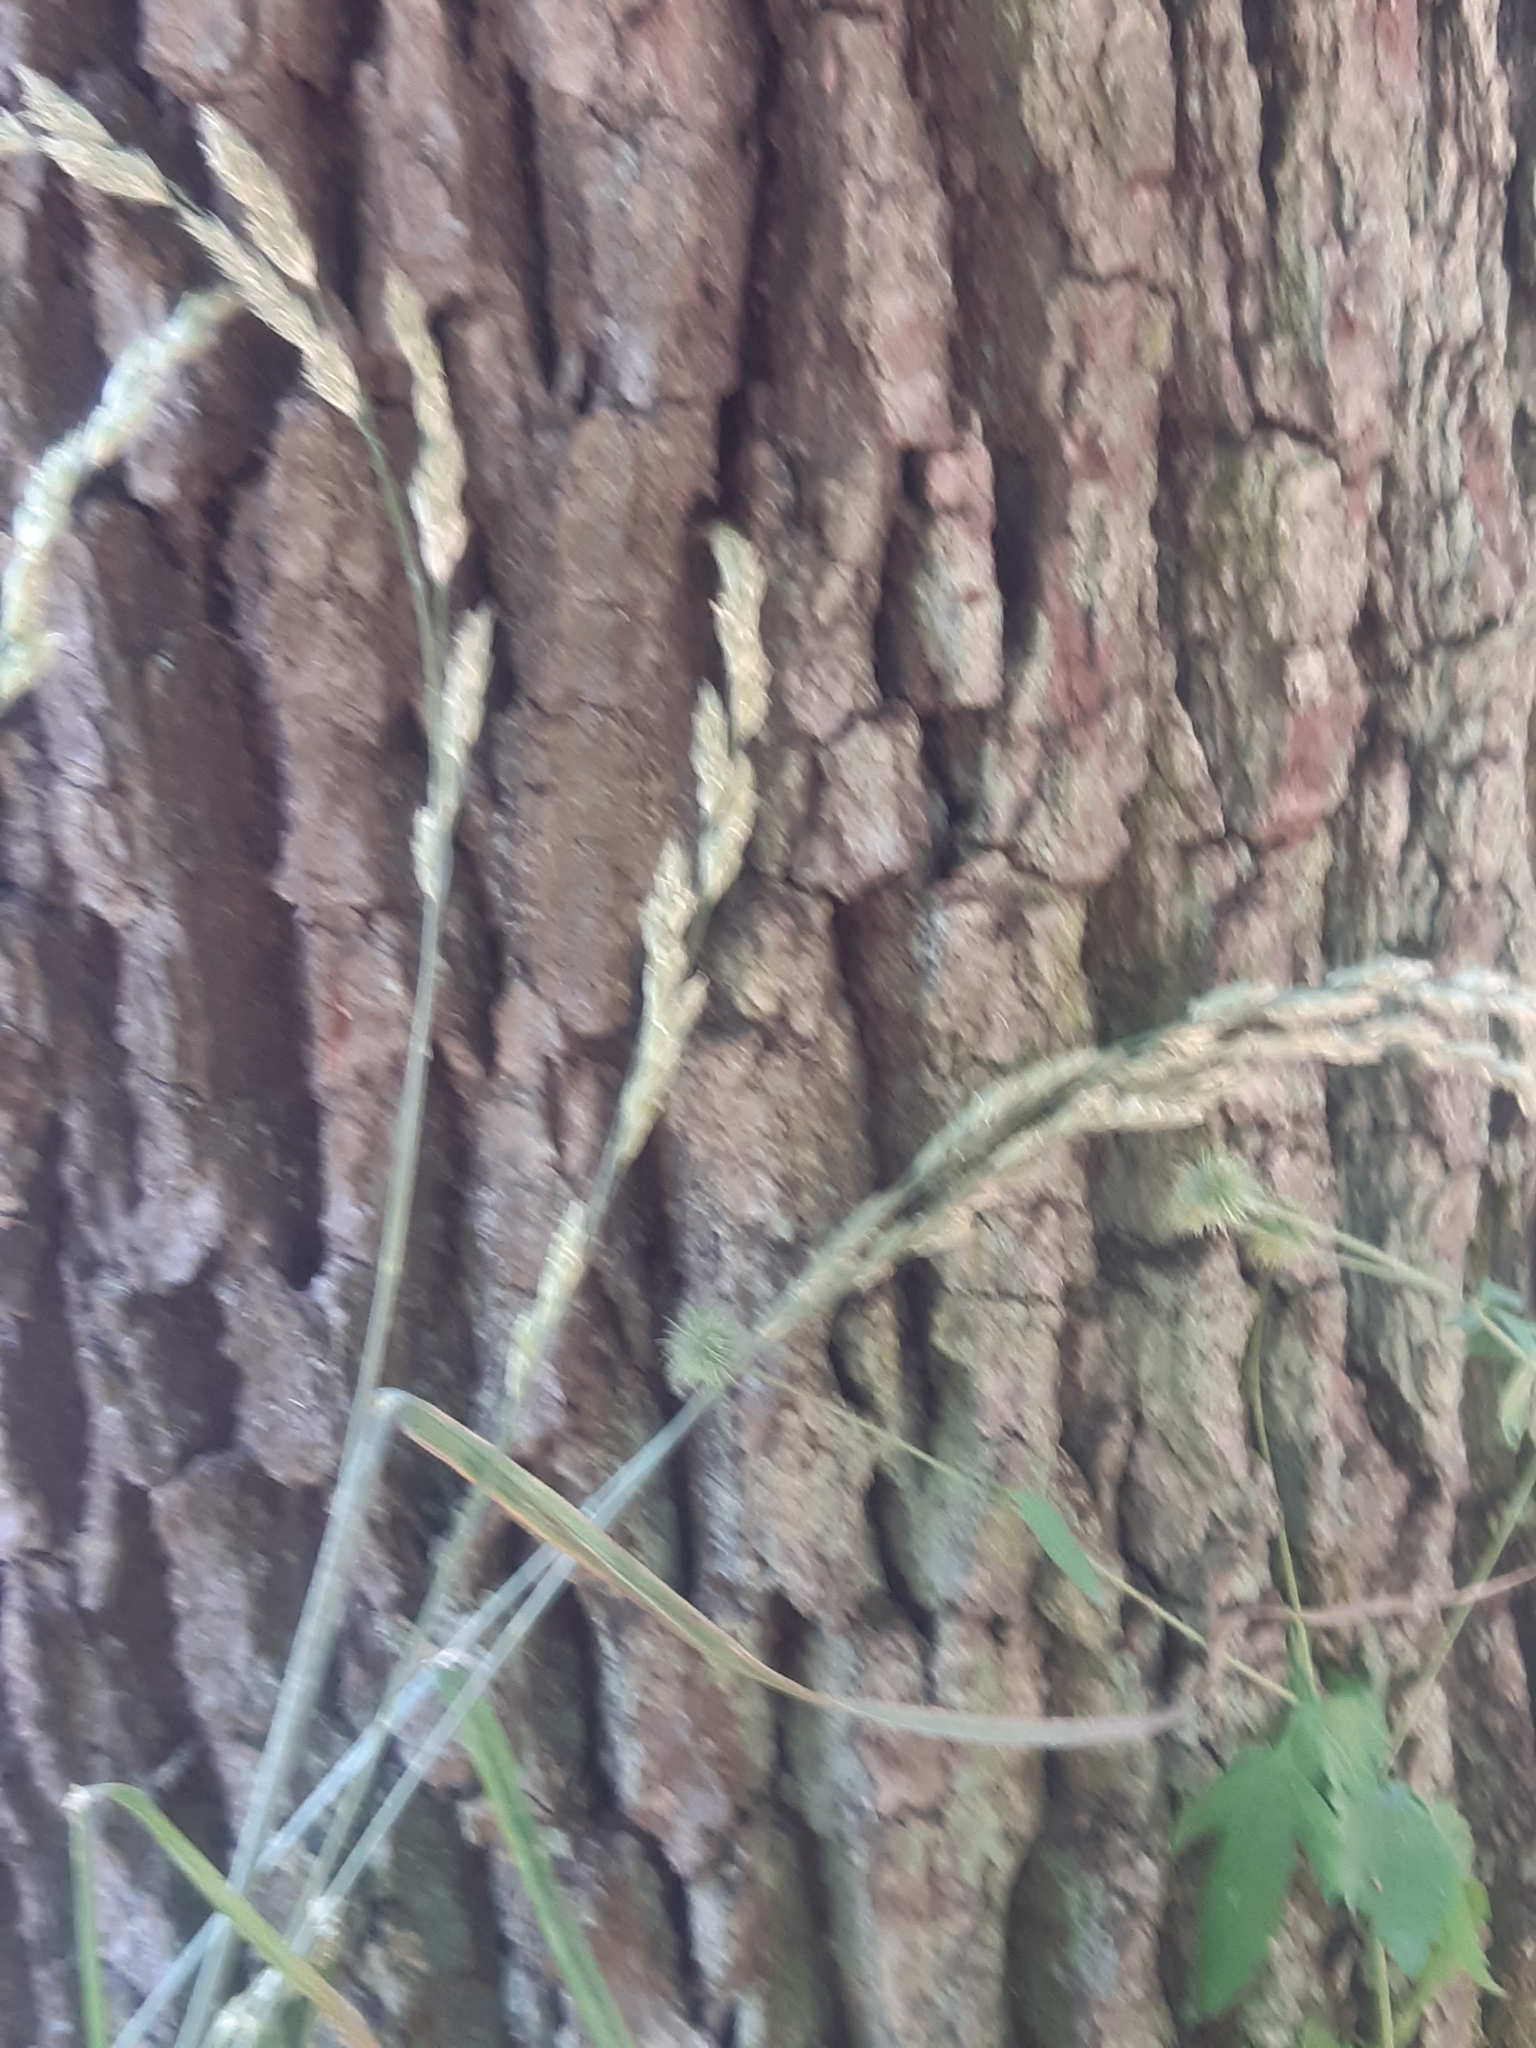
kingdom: Plantae
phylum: Tracheophyta
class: Liliopsida
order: Poales
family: Poaceae
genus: Dactylis
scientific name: Dactylis glomerata
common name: Orchardgrass
